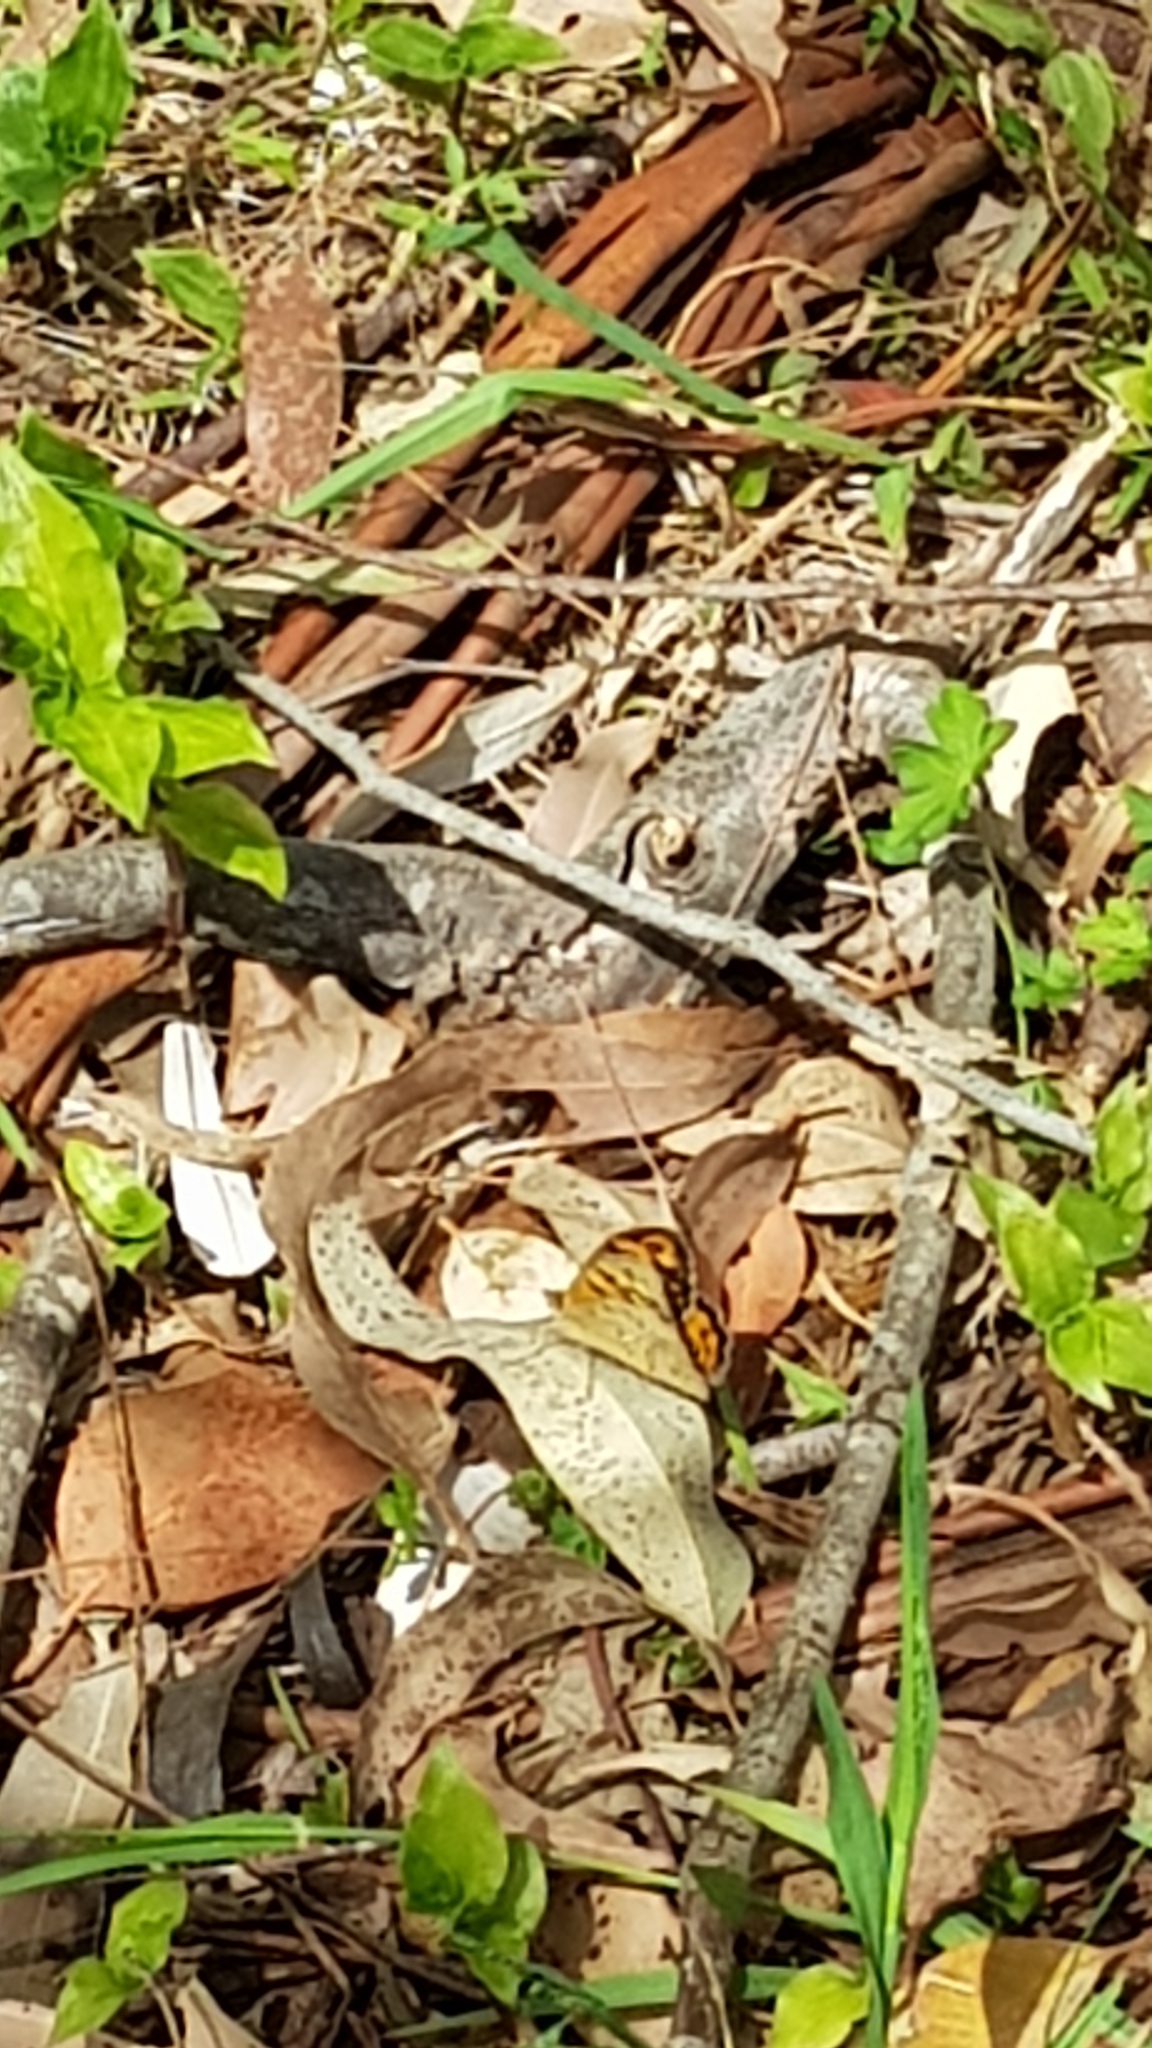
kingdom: Animalia
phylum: Arthropoda
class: Insecta
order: Lepidoptera
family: Nymphalidae
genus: Heteronympha
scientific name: Heteronympha merope
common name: Common brown
